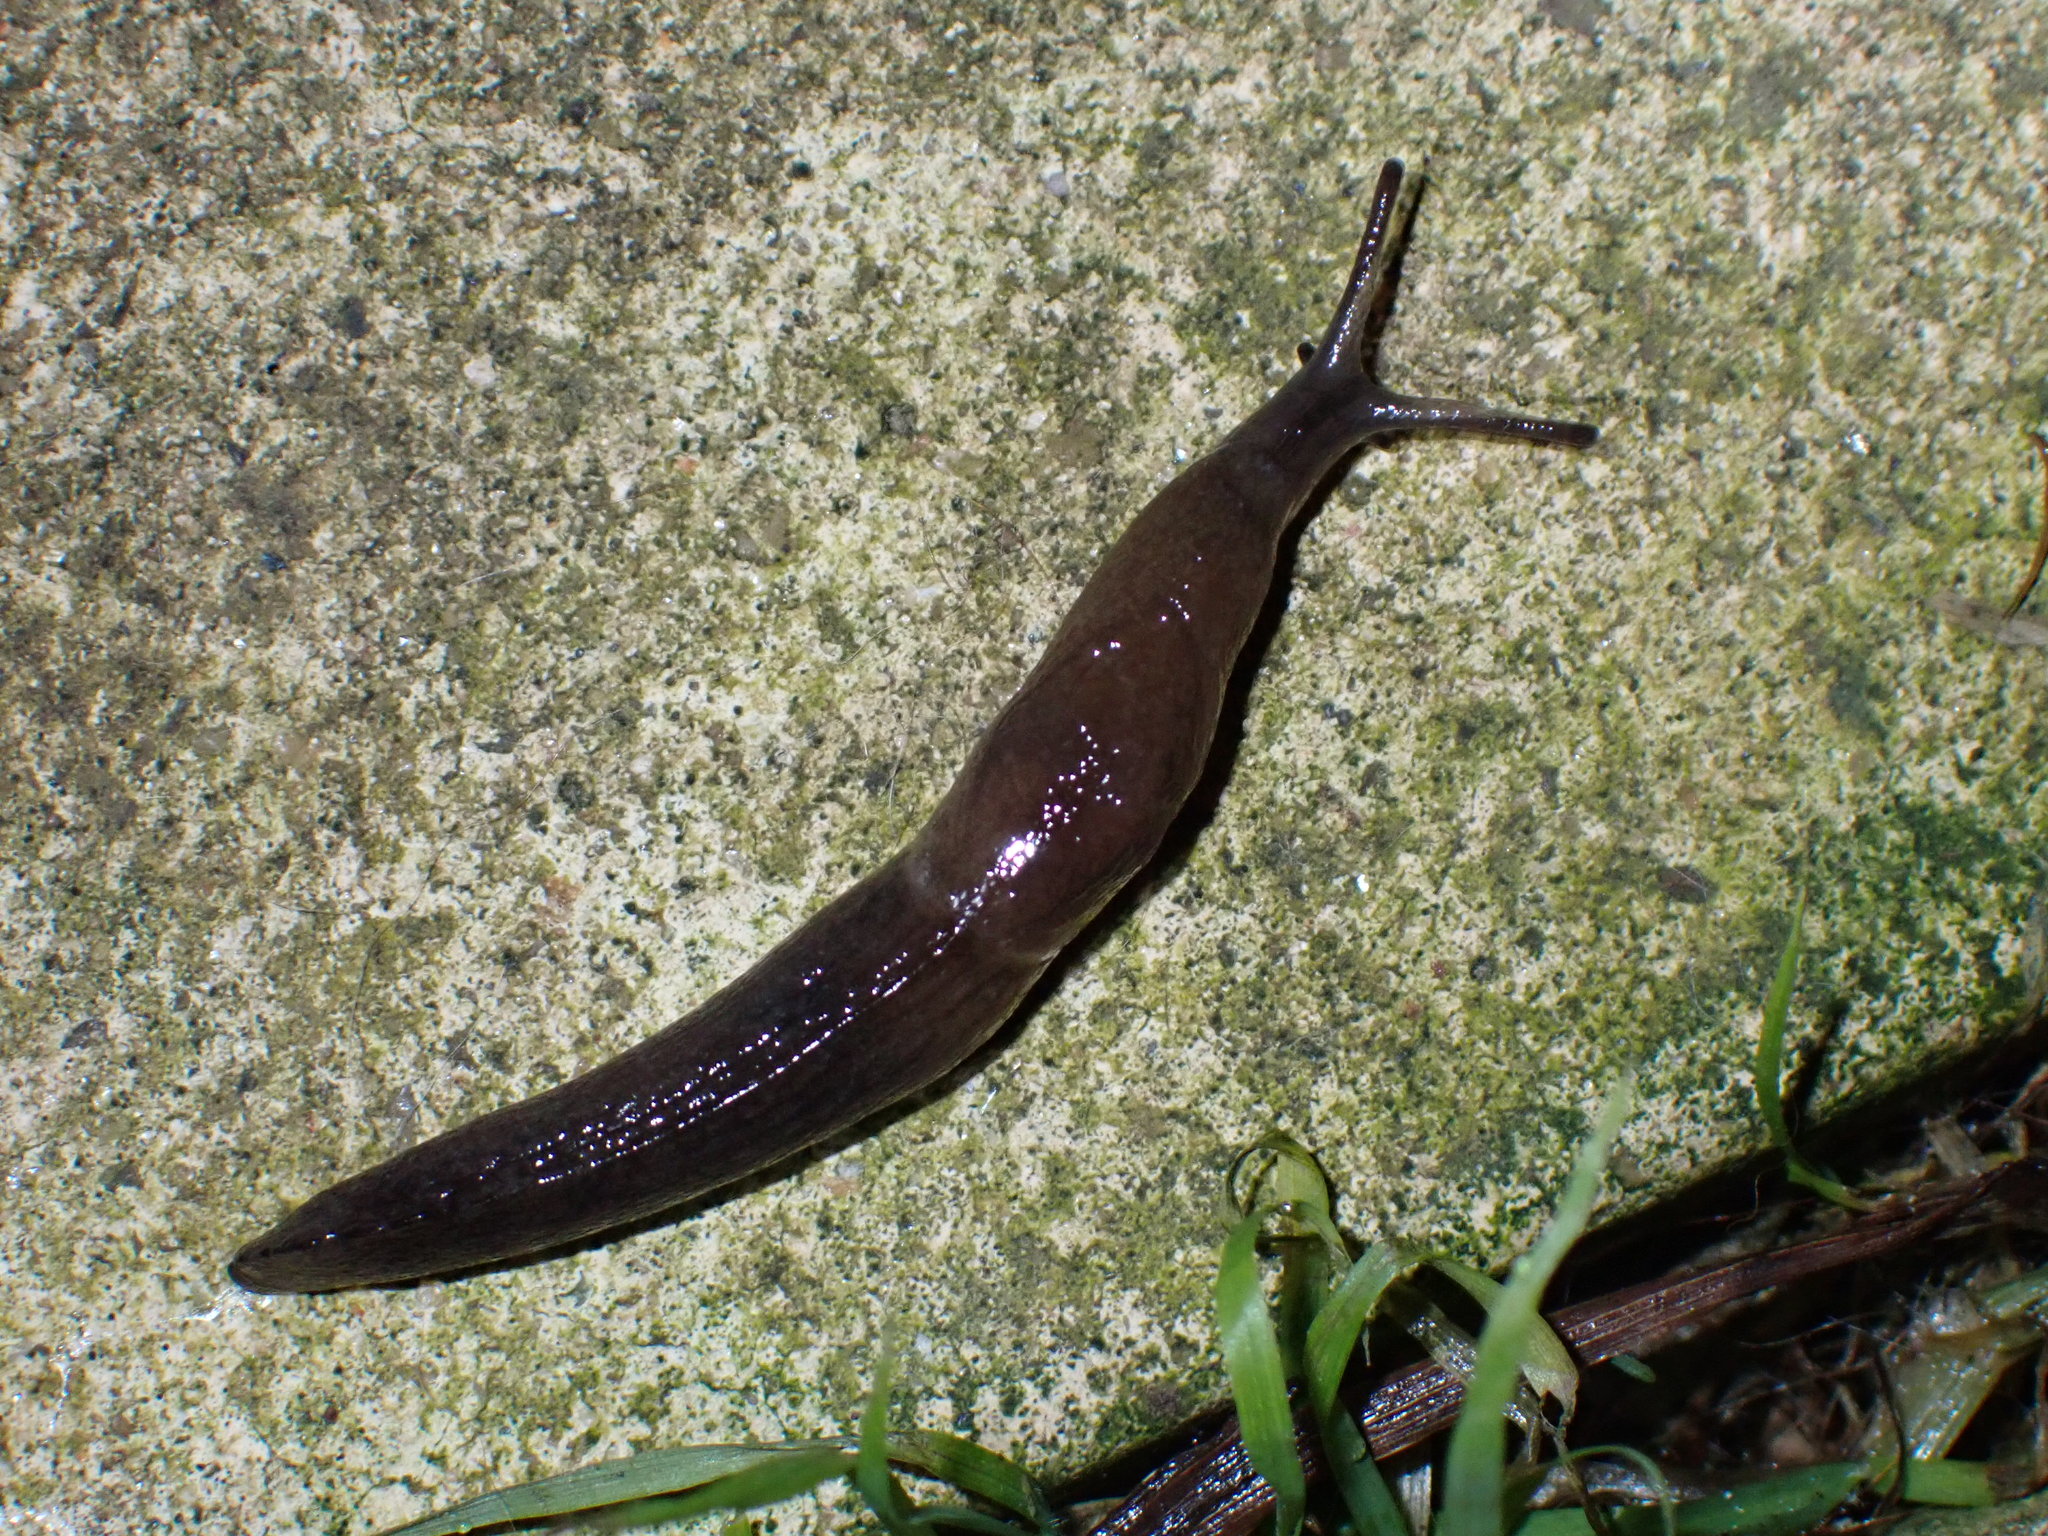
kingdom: Animalia
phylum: Mollusca
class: Gastropoda
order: Stylommatophora
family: Milacidae
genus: Milax
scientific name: Milax gagates
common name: Greenhouse slug
